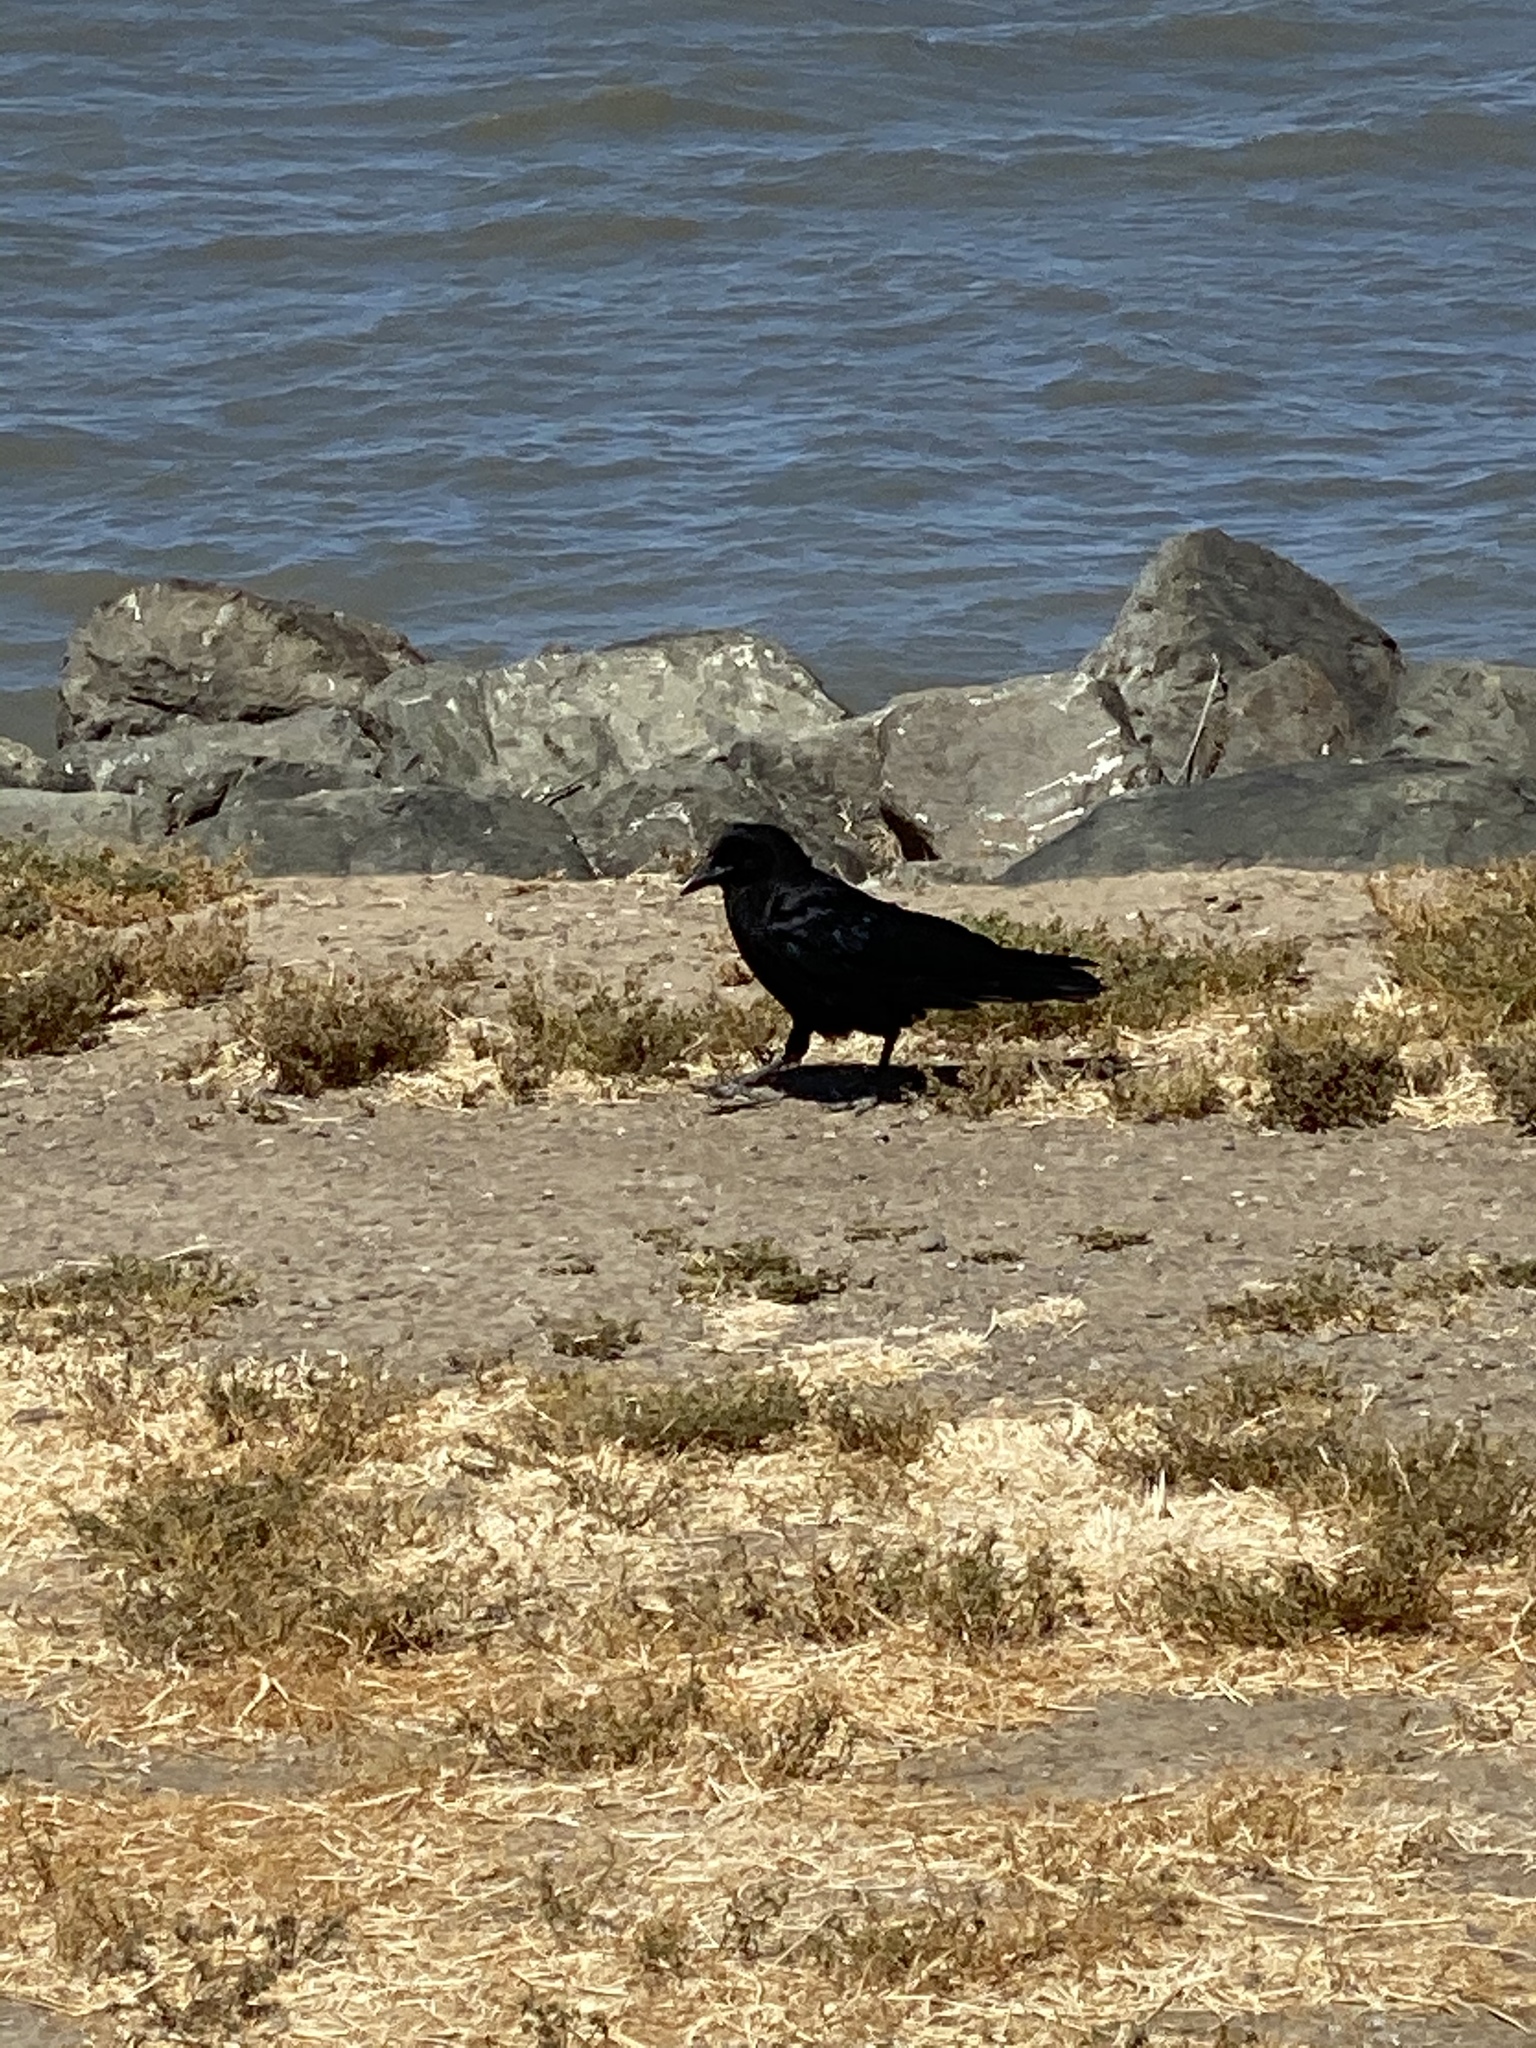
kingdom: Animalia
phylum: Chordata
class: Aves
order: Passeriformes
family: Corvidae
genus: Corvus
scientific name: Corvus brachyrhynchos
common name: American crow
